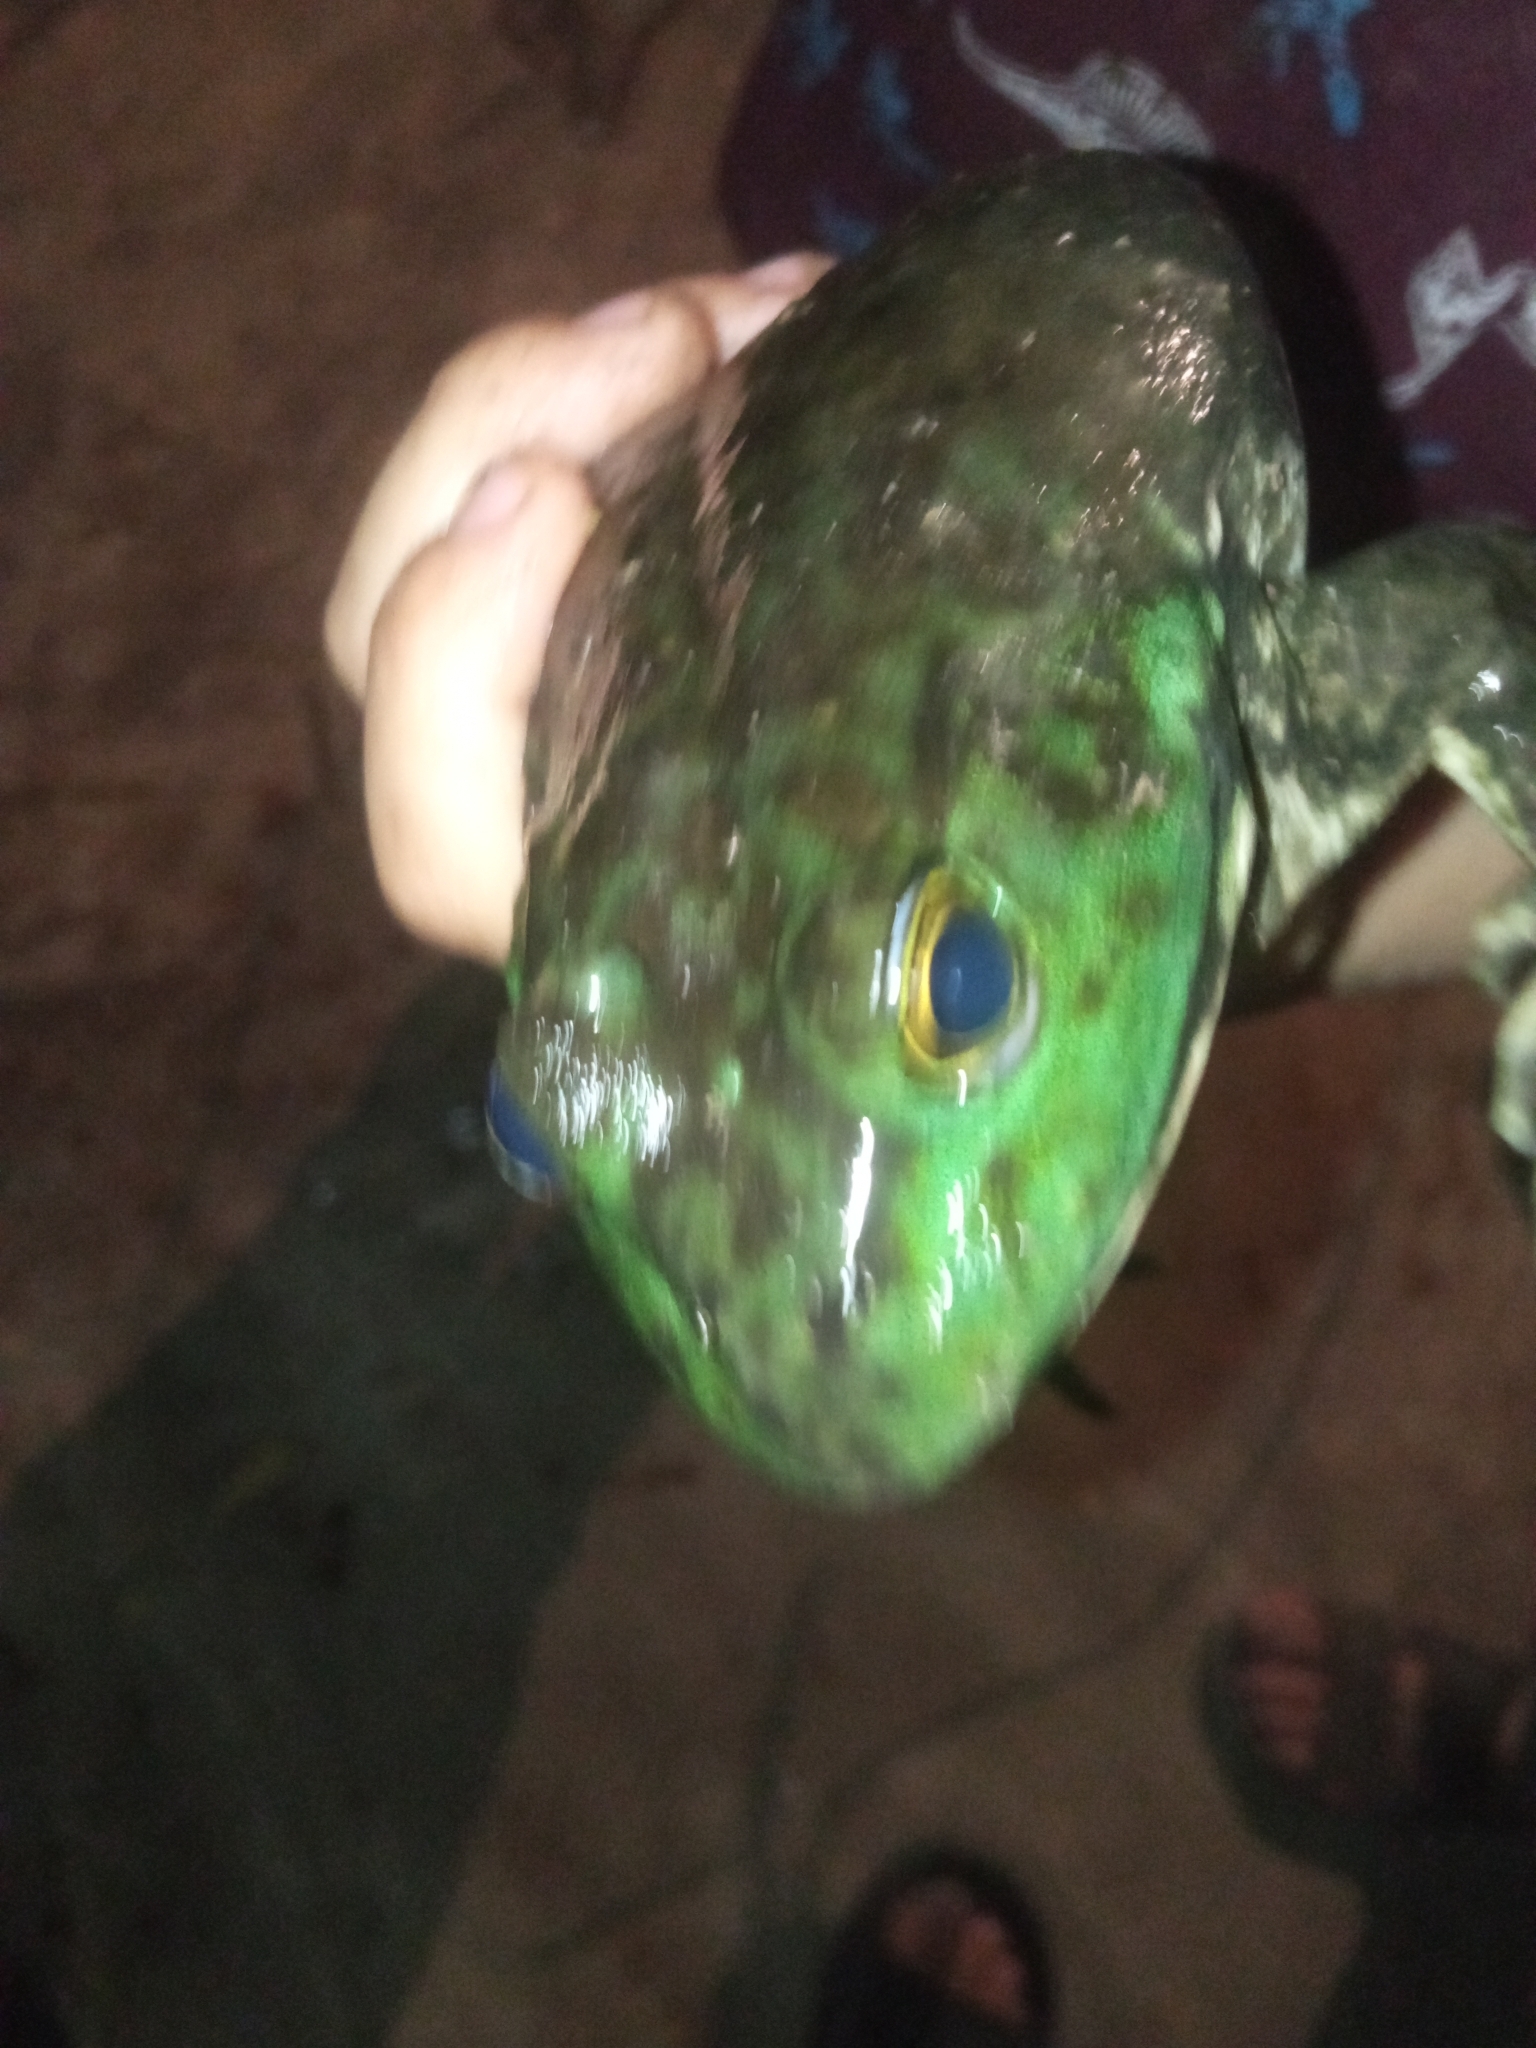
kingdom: Animalia
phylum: Chordata
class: Amphibia
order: Anura
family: Ranidae
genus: Lithobates
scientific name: Lithobates catesbeianus
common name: American bullfrog
